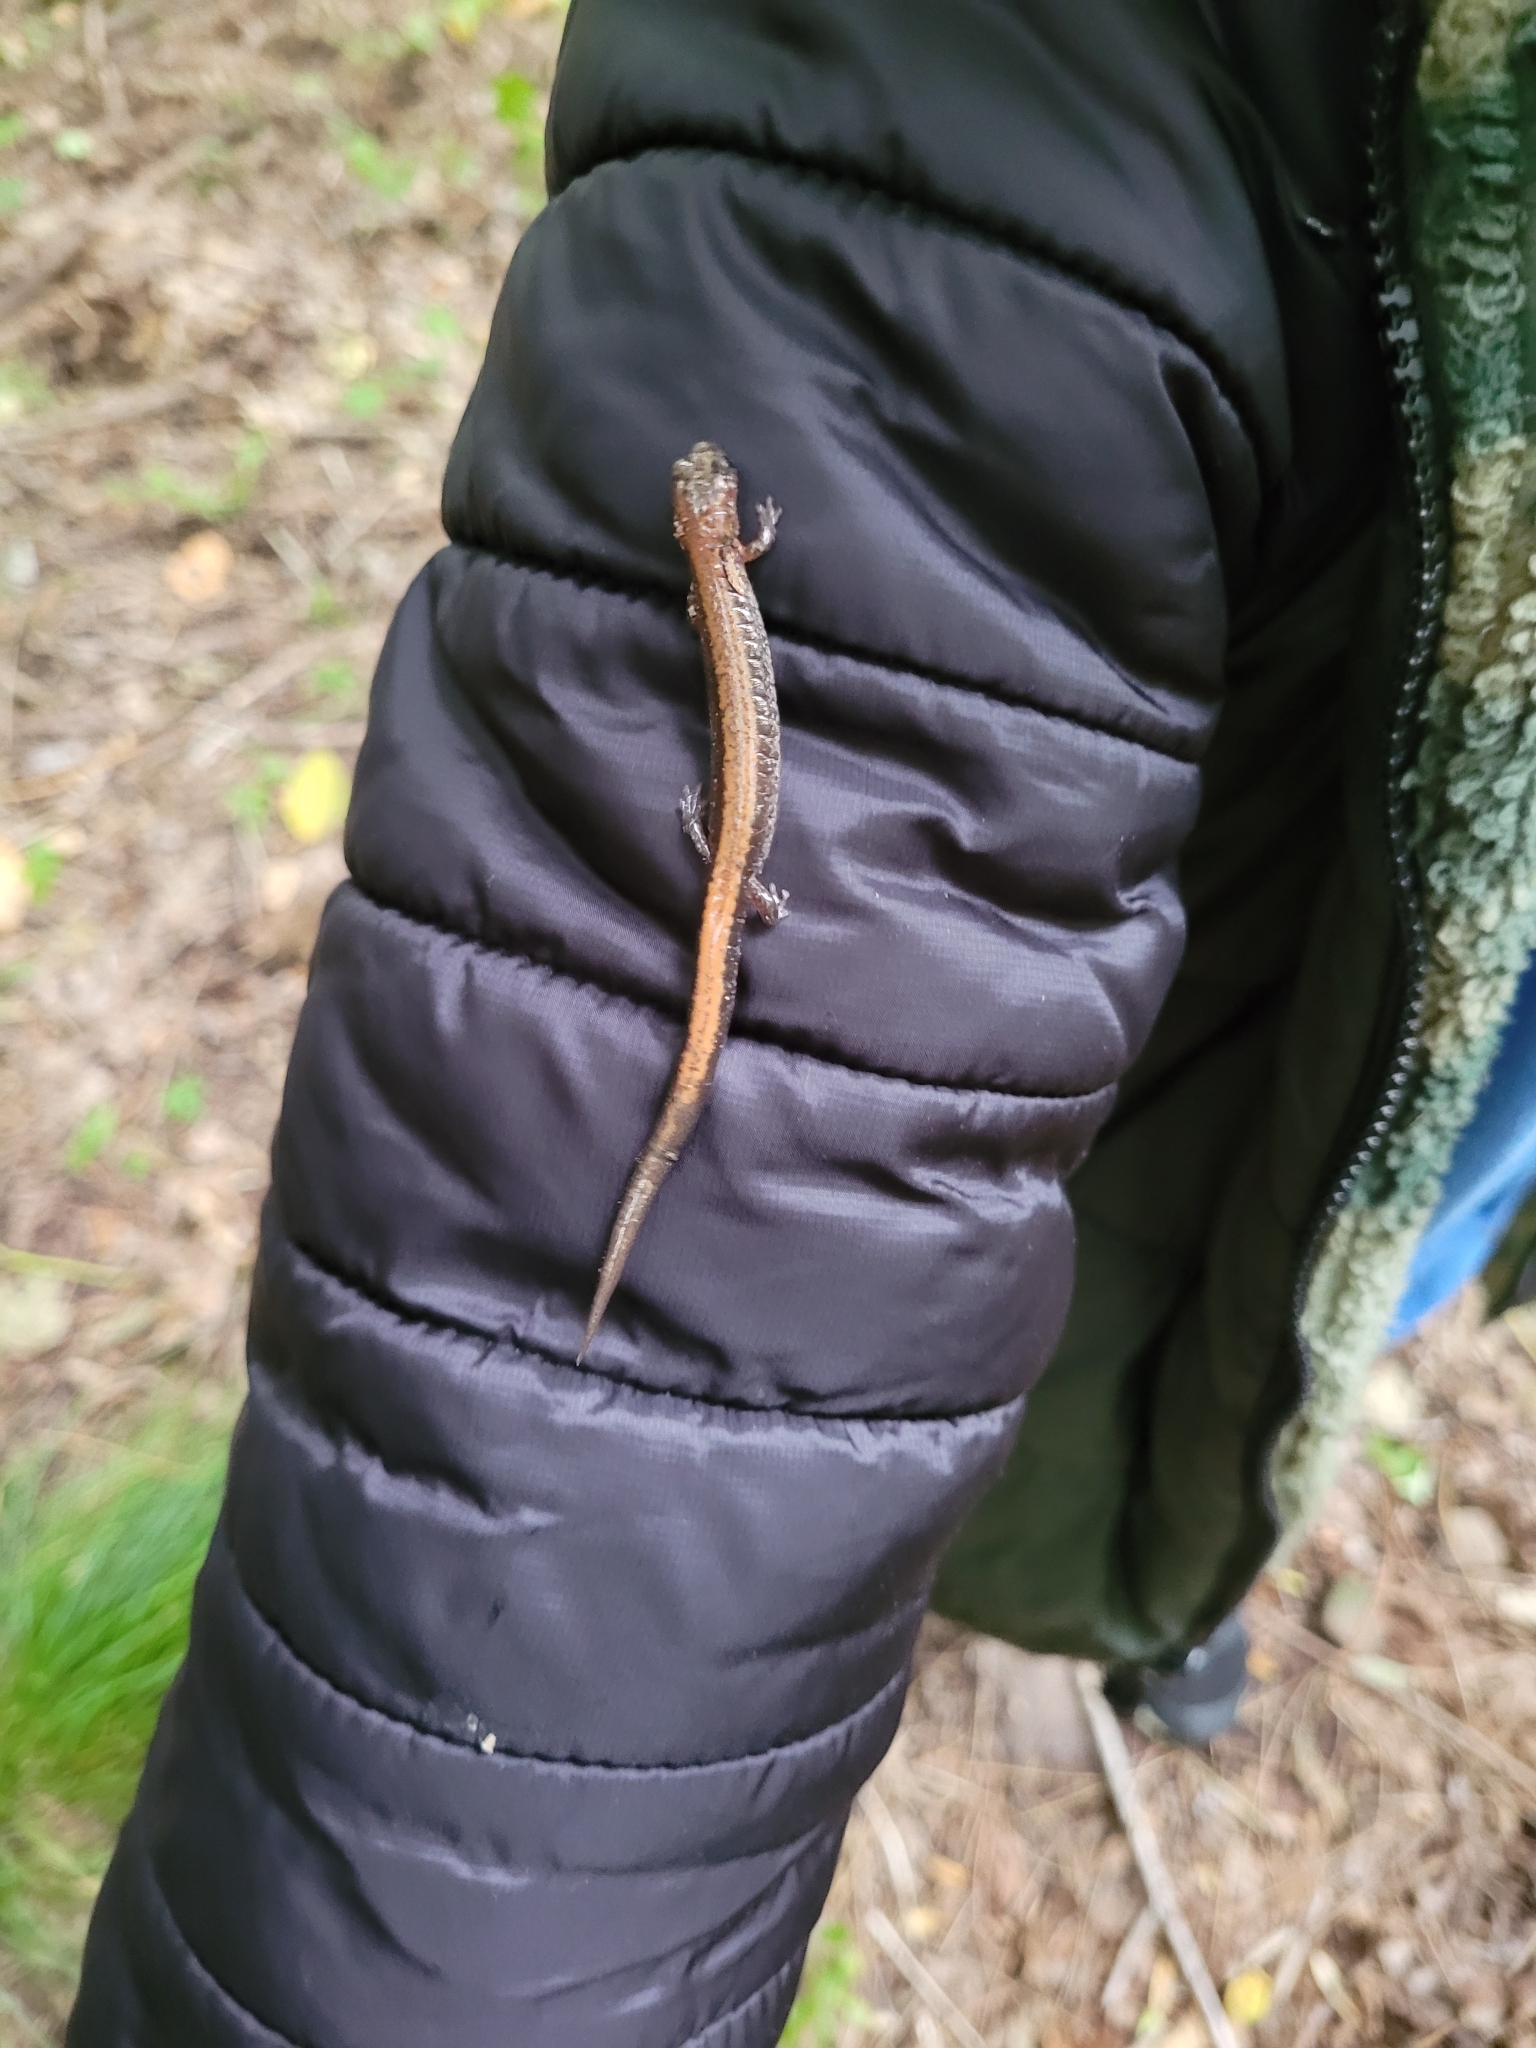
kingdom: Animalia
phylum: Chordata
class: Amphibia
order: Caudata
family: Plethodontidae
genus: Plethodon
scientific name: Plethodon cinereus
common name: Redback salamander
